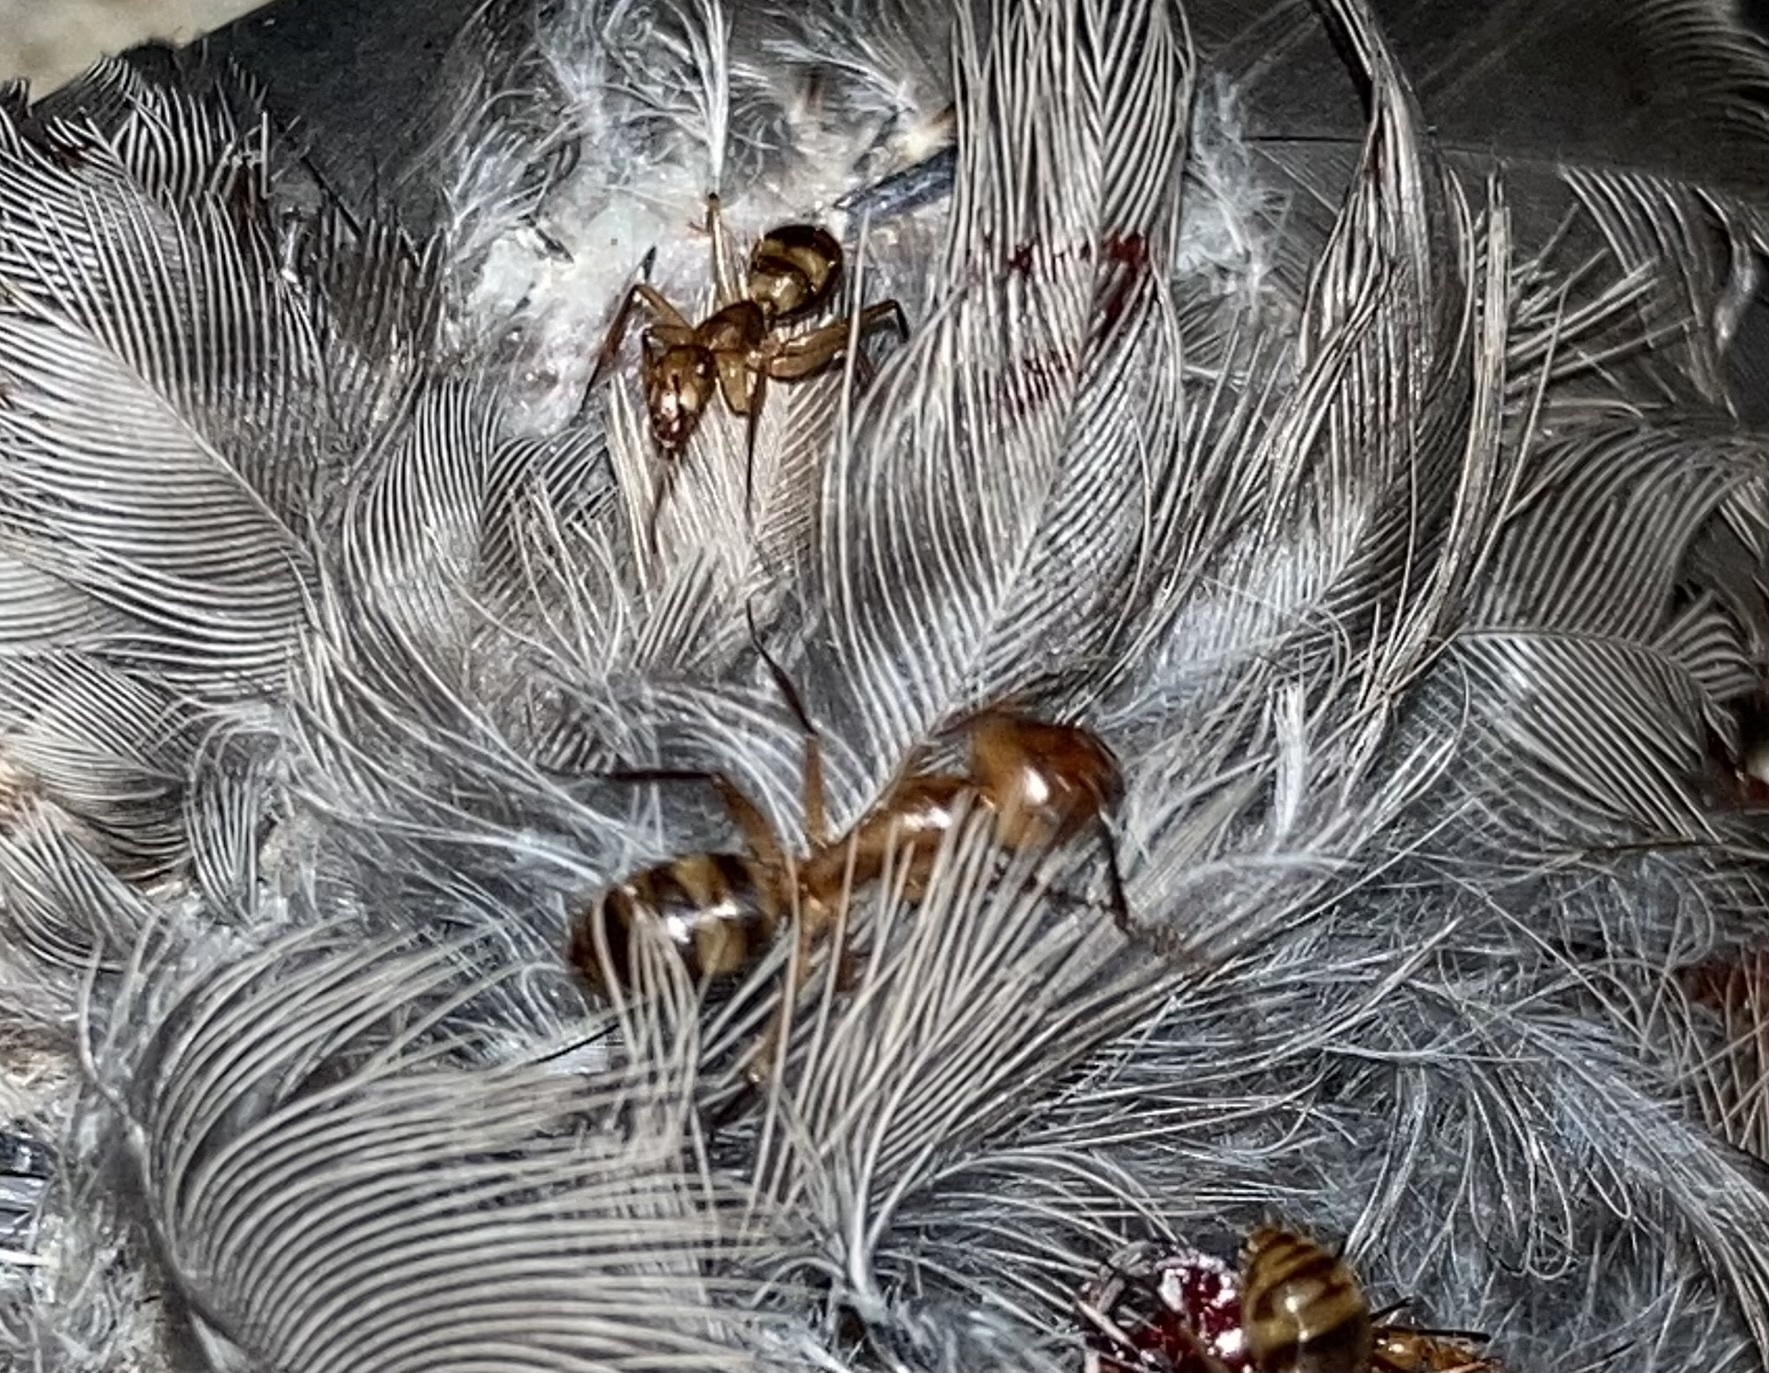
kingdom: Animalia
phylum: Arthropoda
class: Insecta
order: Hymenoptera
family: Formicidae
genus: Camponotus
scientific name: Camponotus
